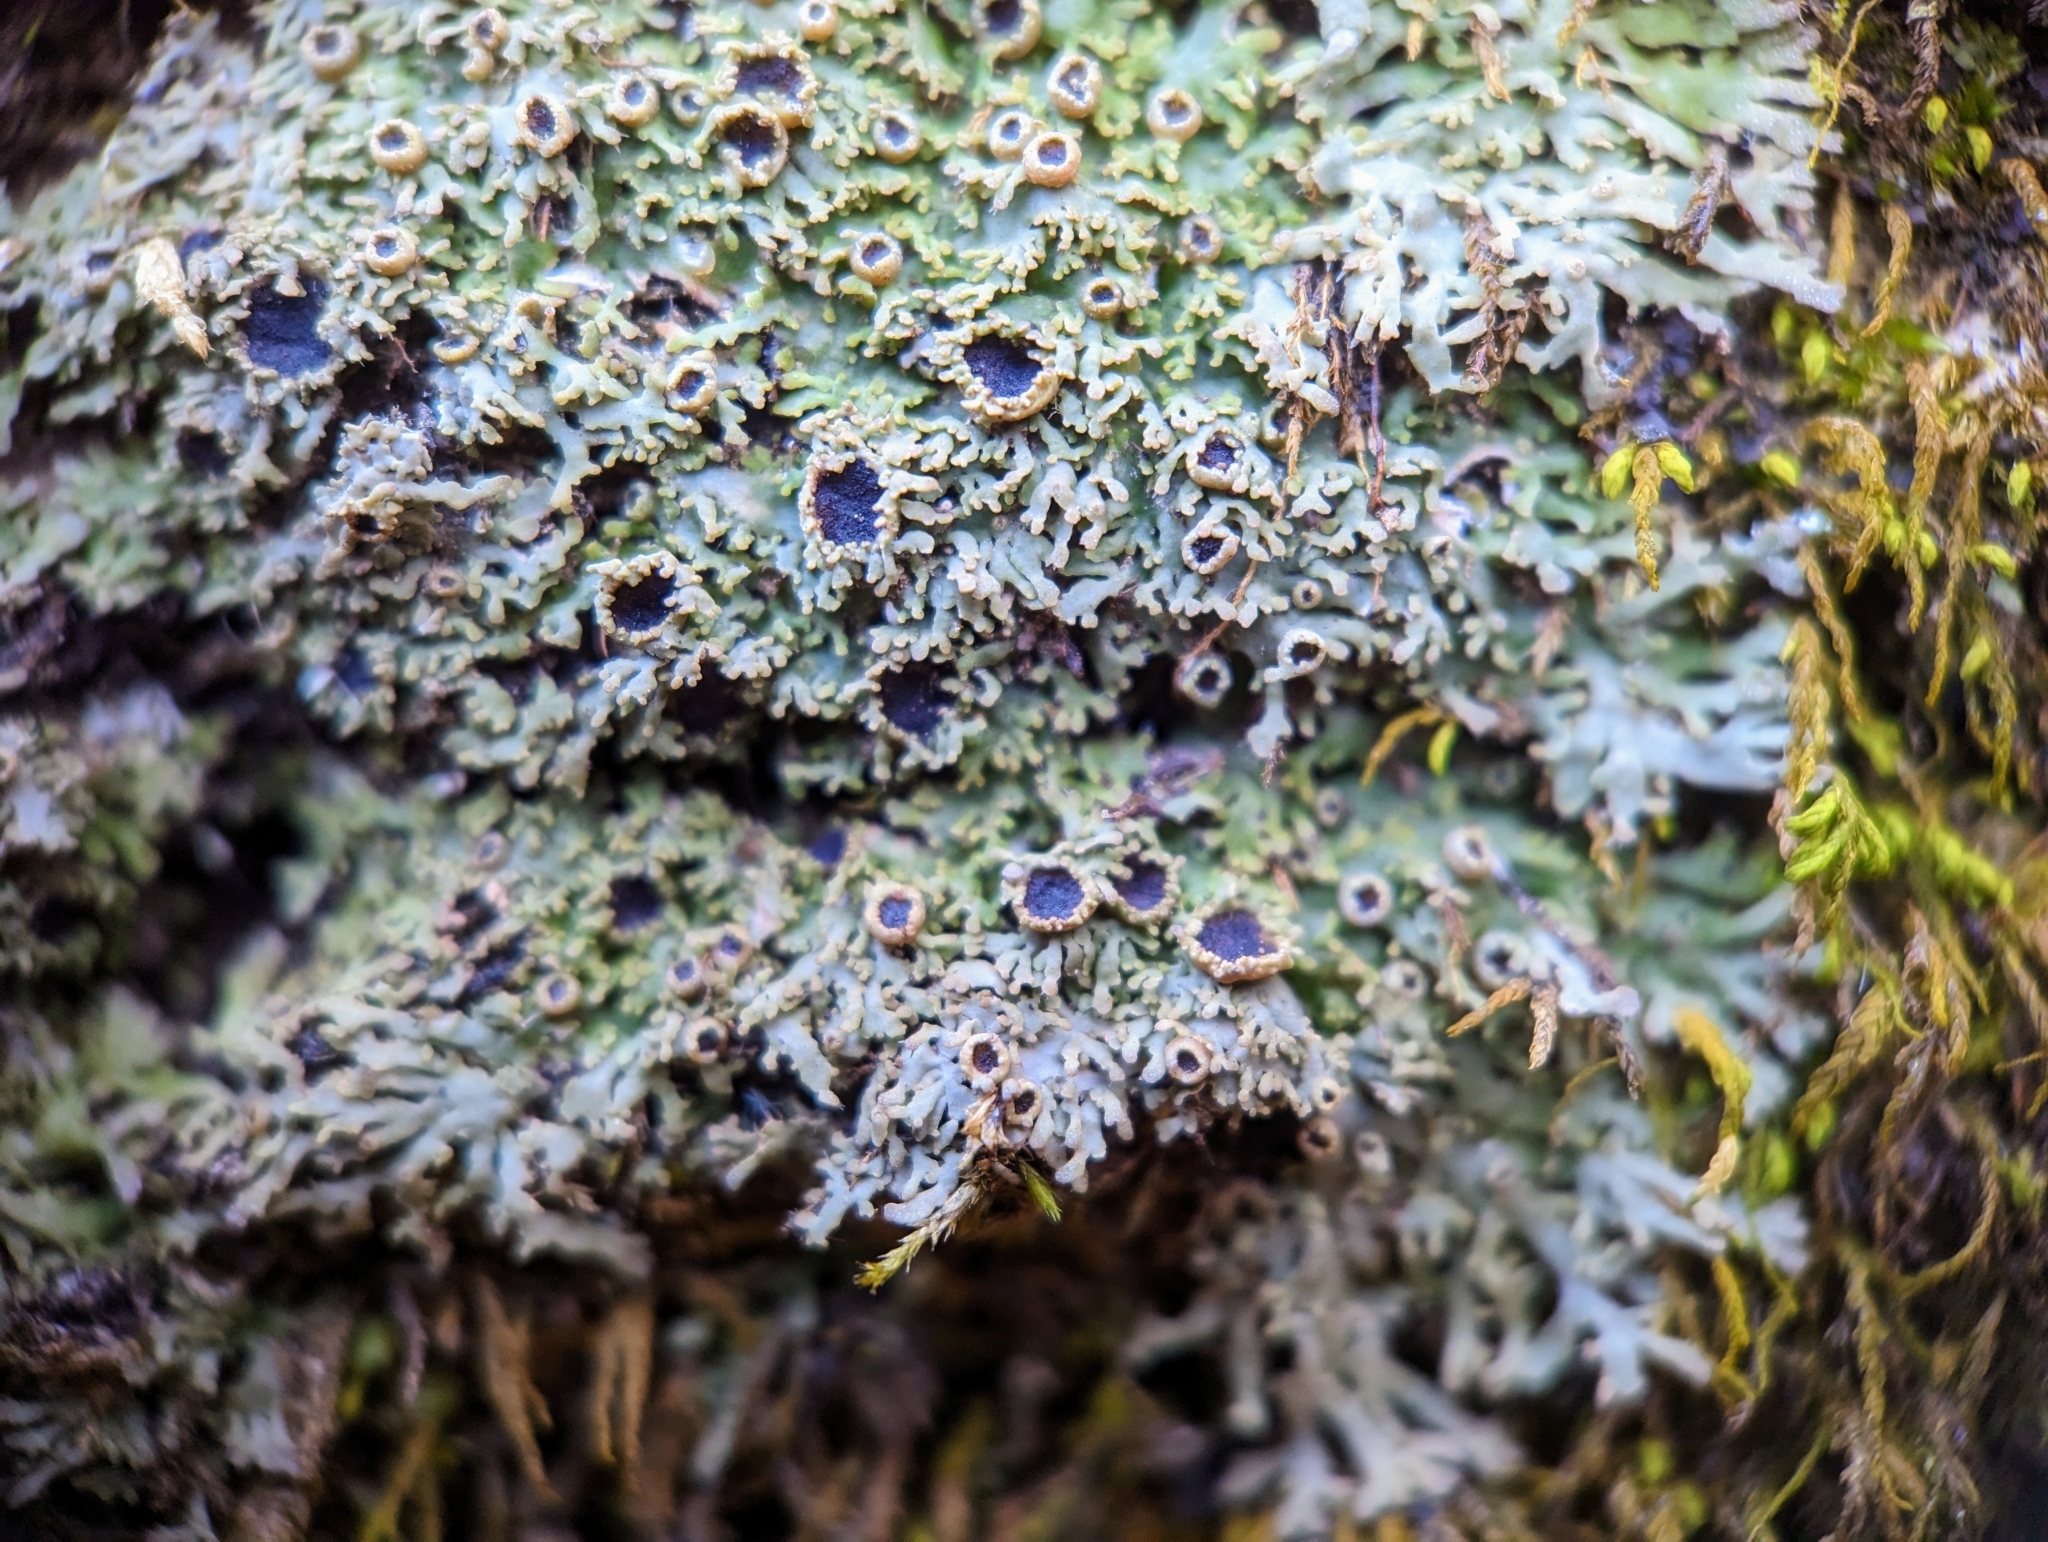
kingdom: Fungi
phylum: Ascomycota
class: Lecanoromycetes
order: Caliciales
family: Physciaceae
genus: Kurokawia
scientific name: Kurokawia palmulata
